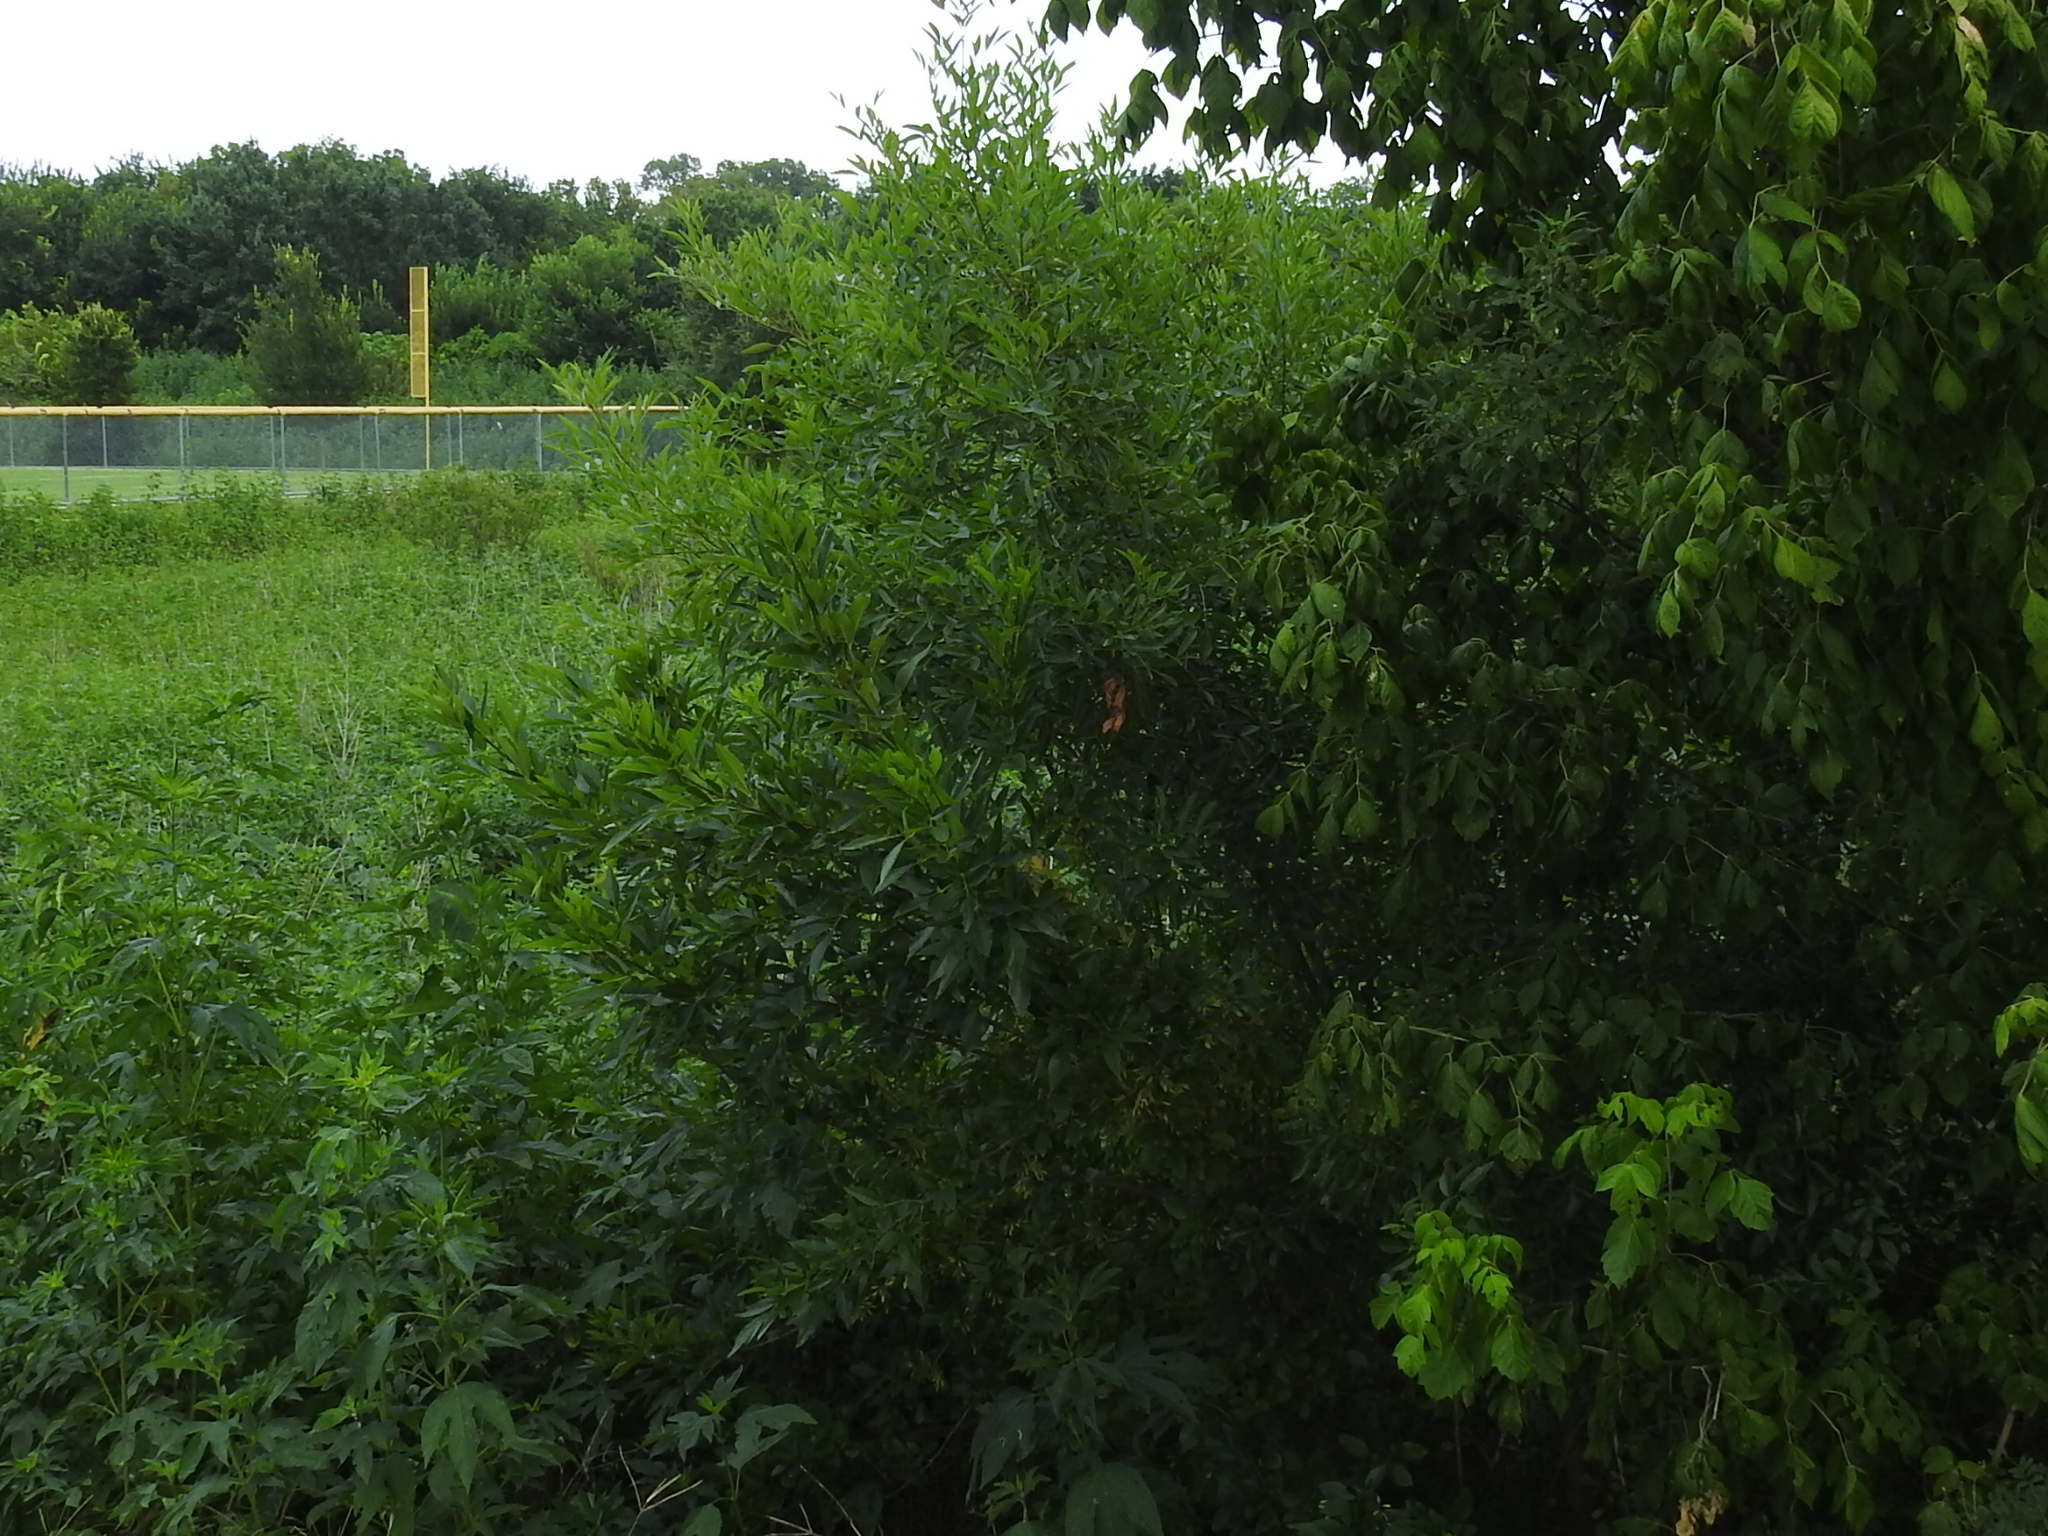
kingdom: Plantae
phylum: Tracheophyta
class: Magnoliopsida
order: Lamiales
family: Oleaceae
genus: Fraxinus
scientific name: Fraxinus pennsylvanica
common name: Green ash
